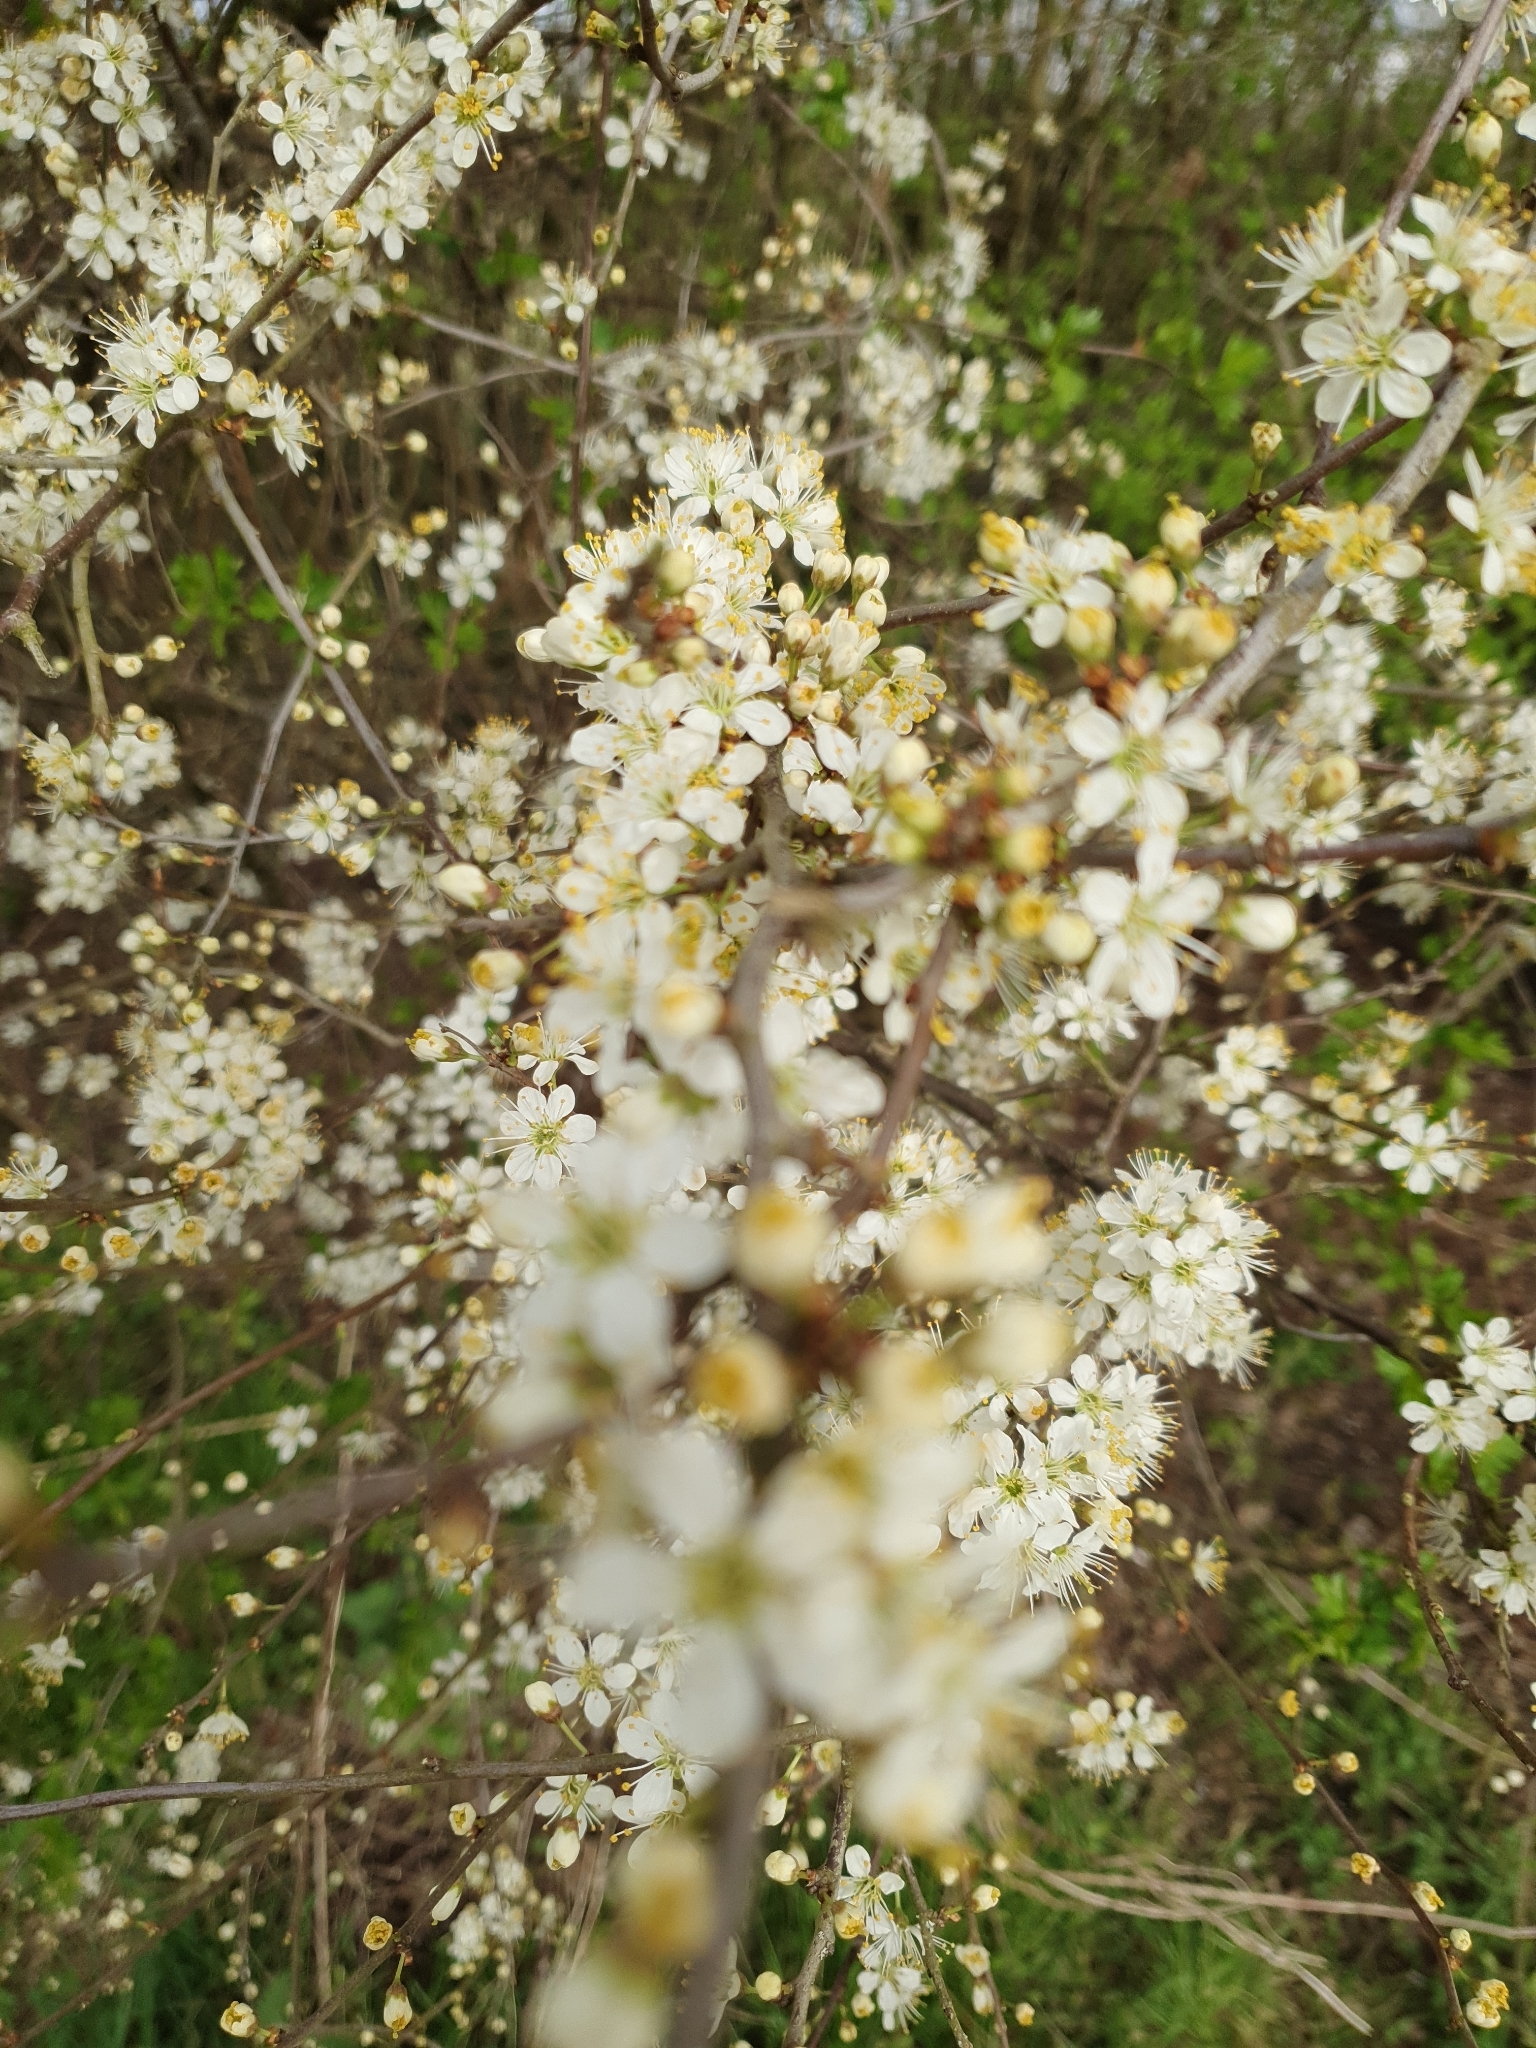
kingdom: Plantae
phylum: Tracheophyta
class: Magnoliopsida
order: Rosales
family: Rosaceae
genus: Prunus
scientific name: Prunus spinosa
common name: Blackthorn
